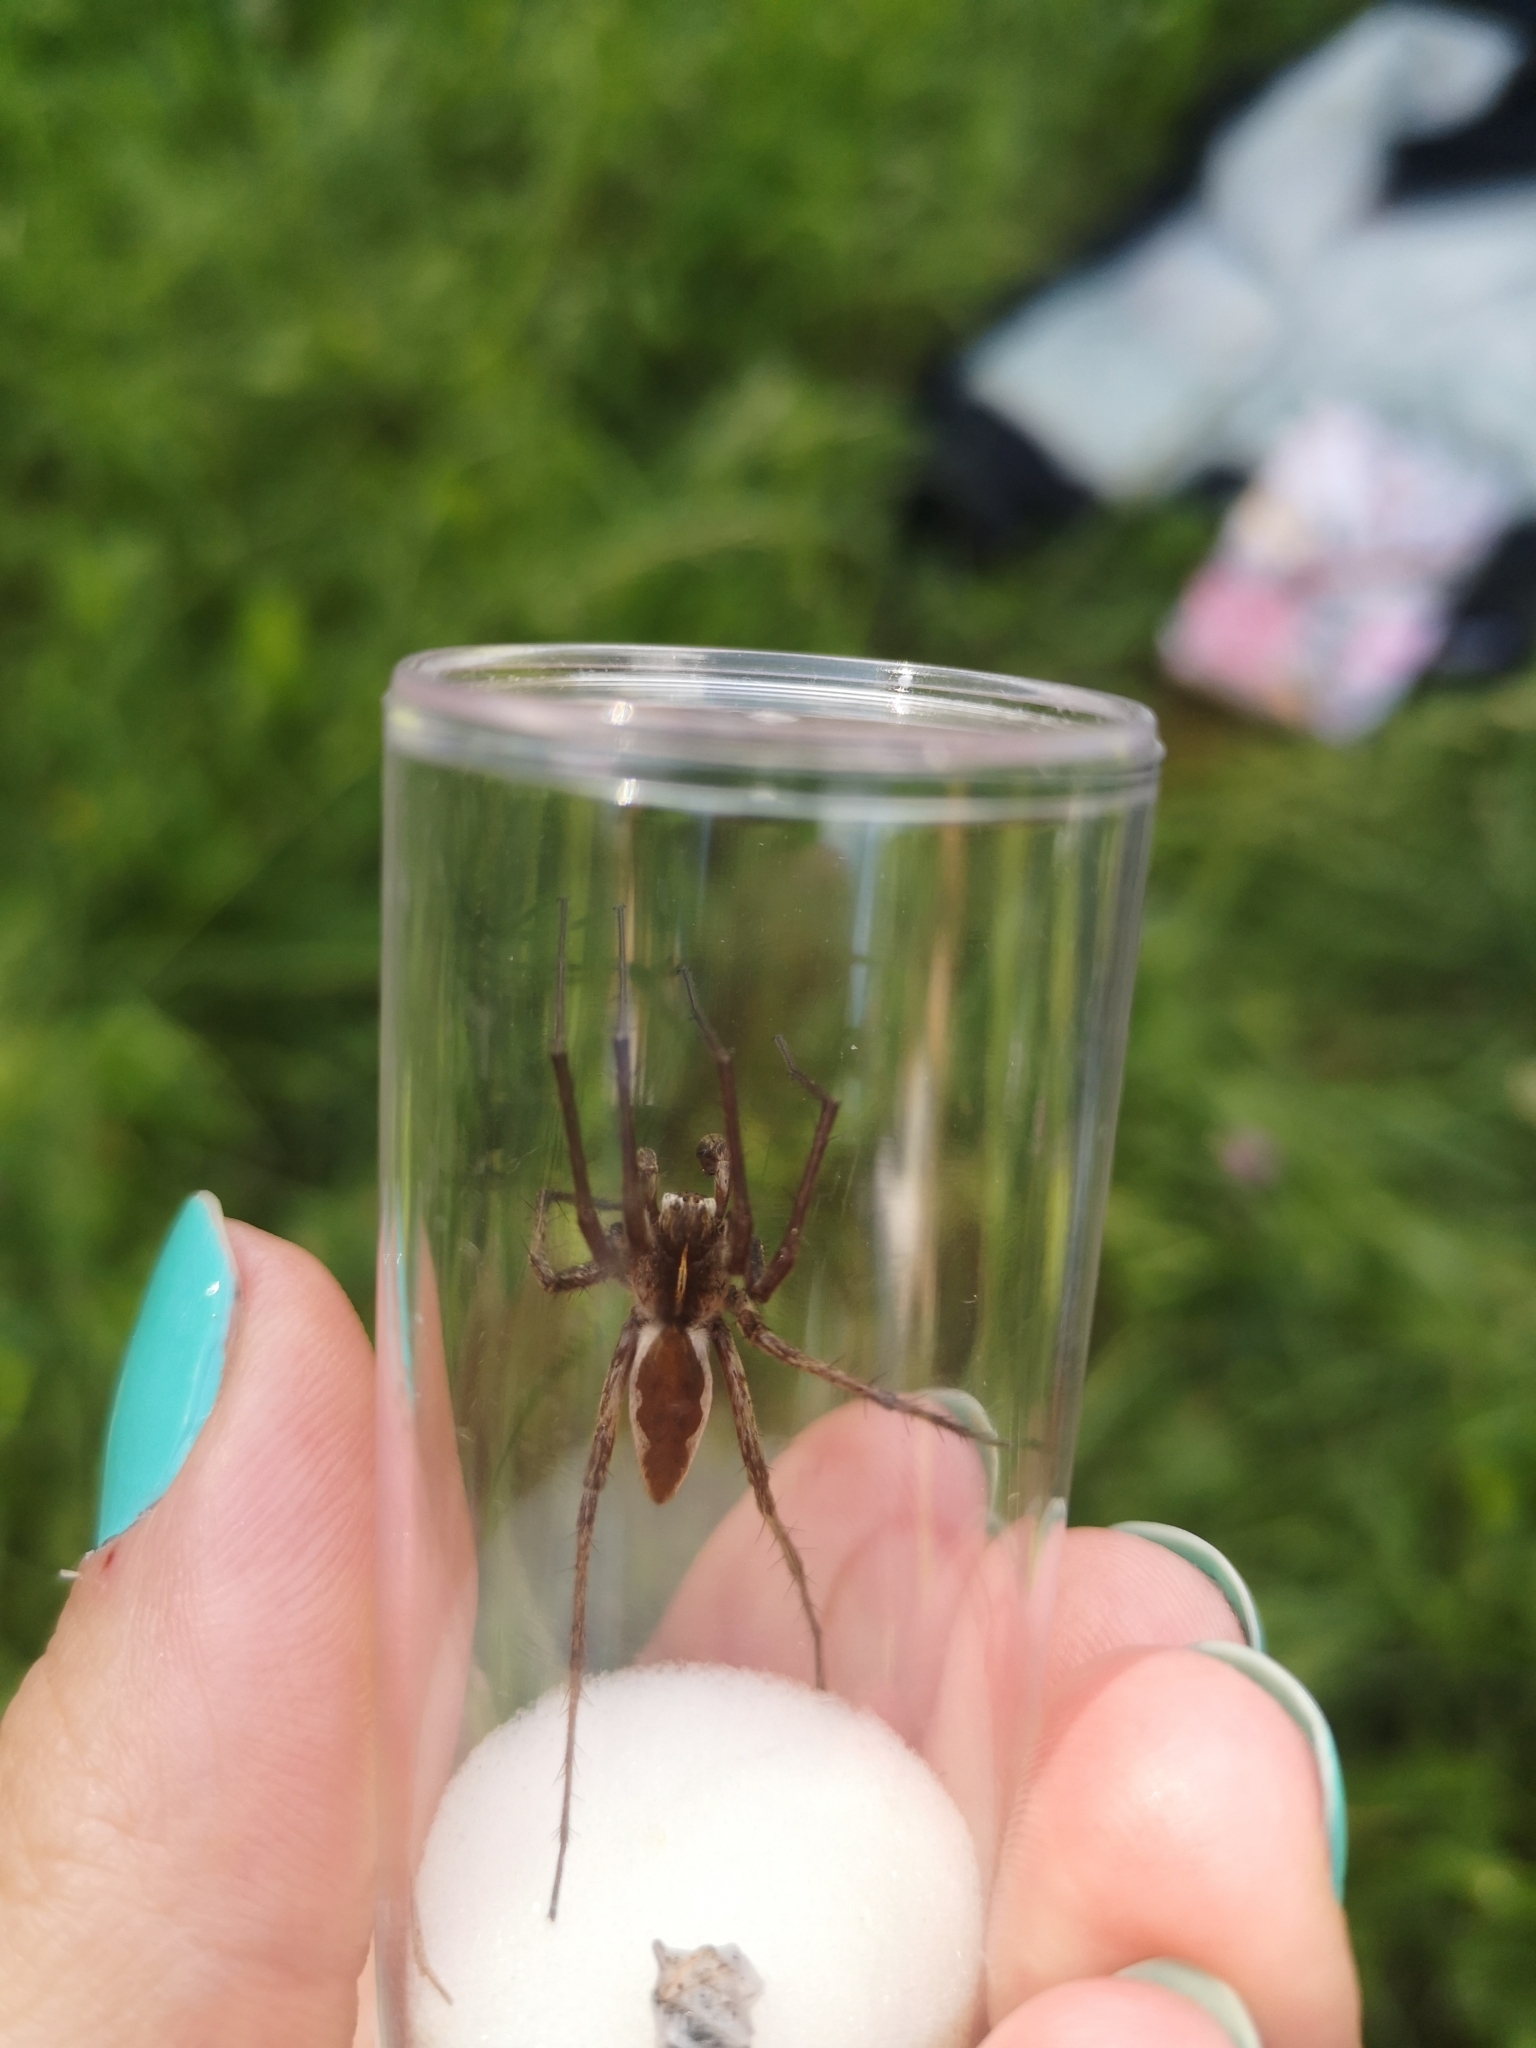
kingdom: Animalia
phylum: Arthropoda
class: Arachnida
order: Araneae
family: Pisauridae
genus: Pisaura
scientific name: Pisaura mirabilis
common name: Tent spider
